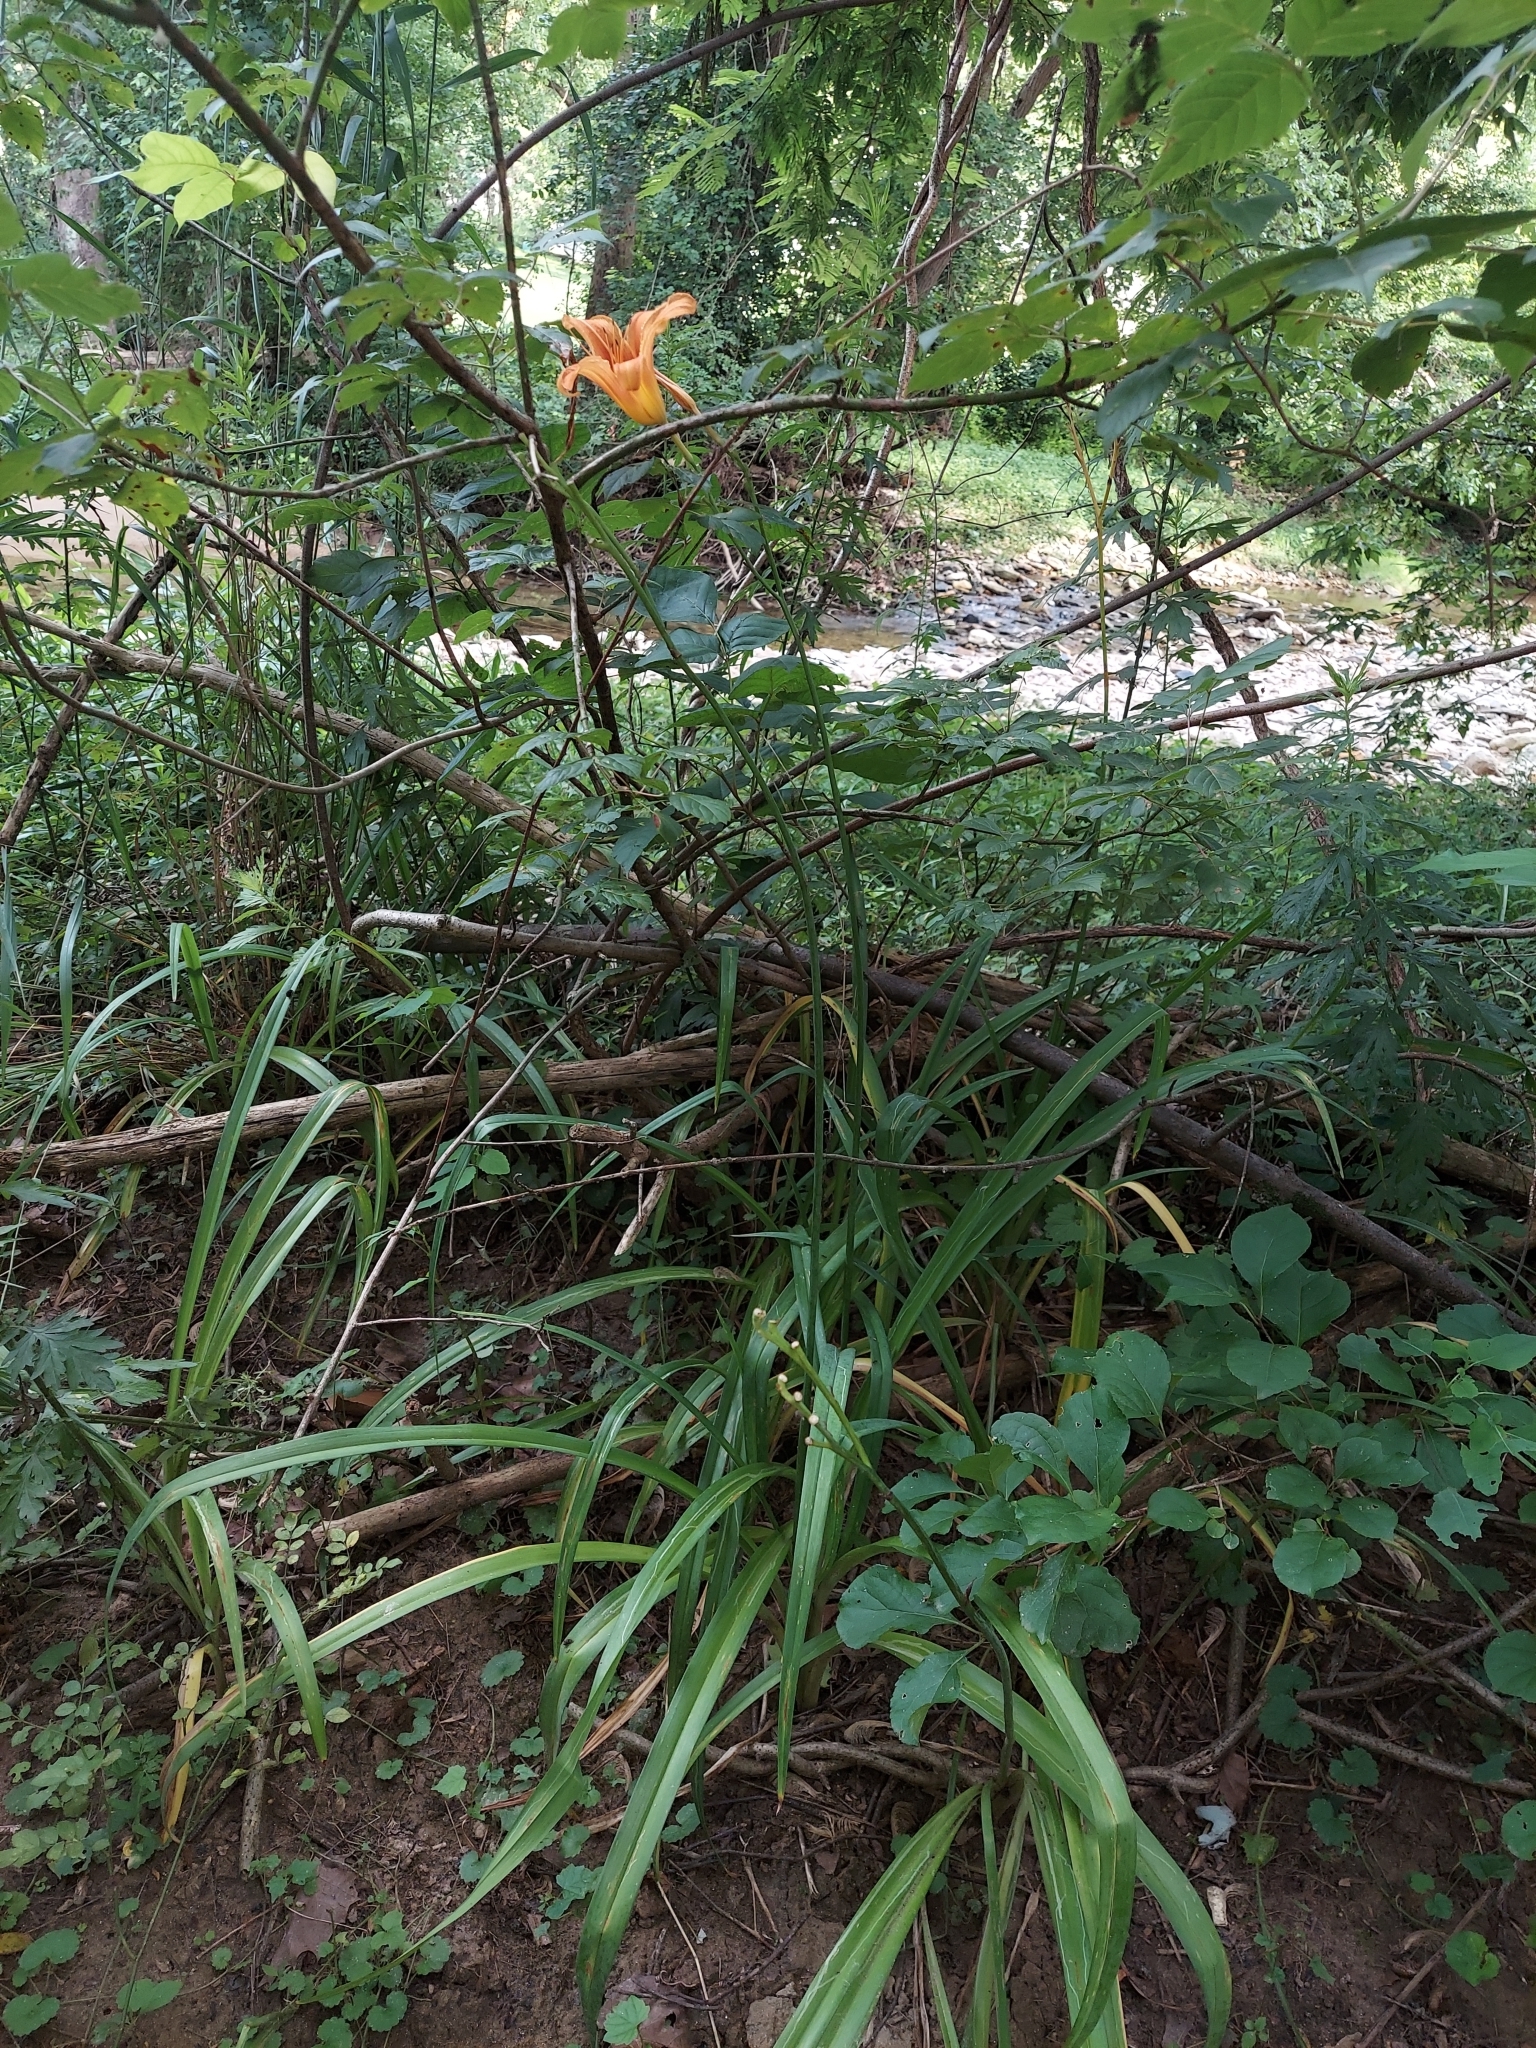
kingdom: Plantae
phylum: Tracheophyta
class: Liliopsida
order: Asparagales
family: Asphodelaceae
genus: Hemerocallis
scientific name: Hemerocallis fulva
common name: Orange day-lily
